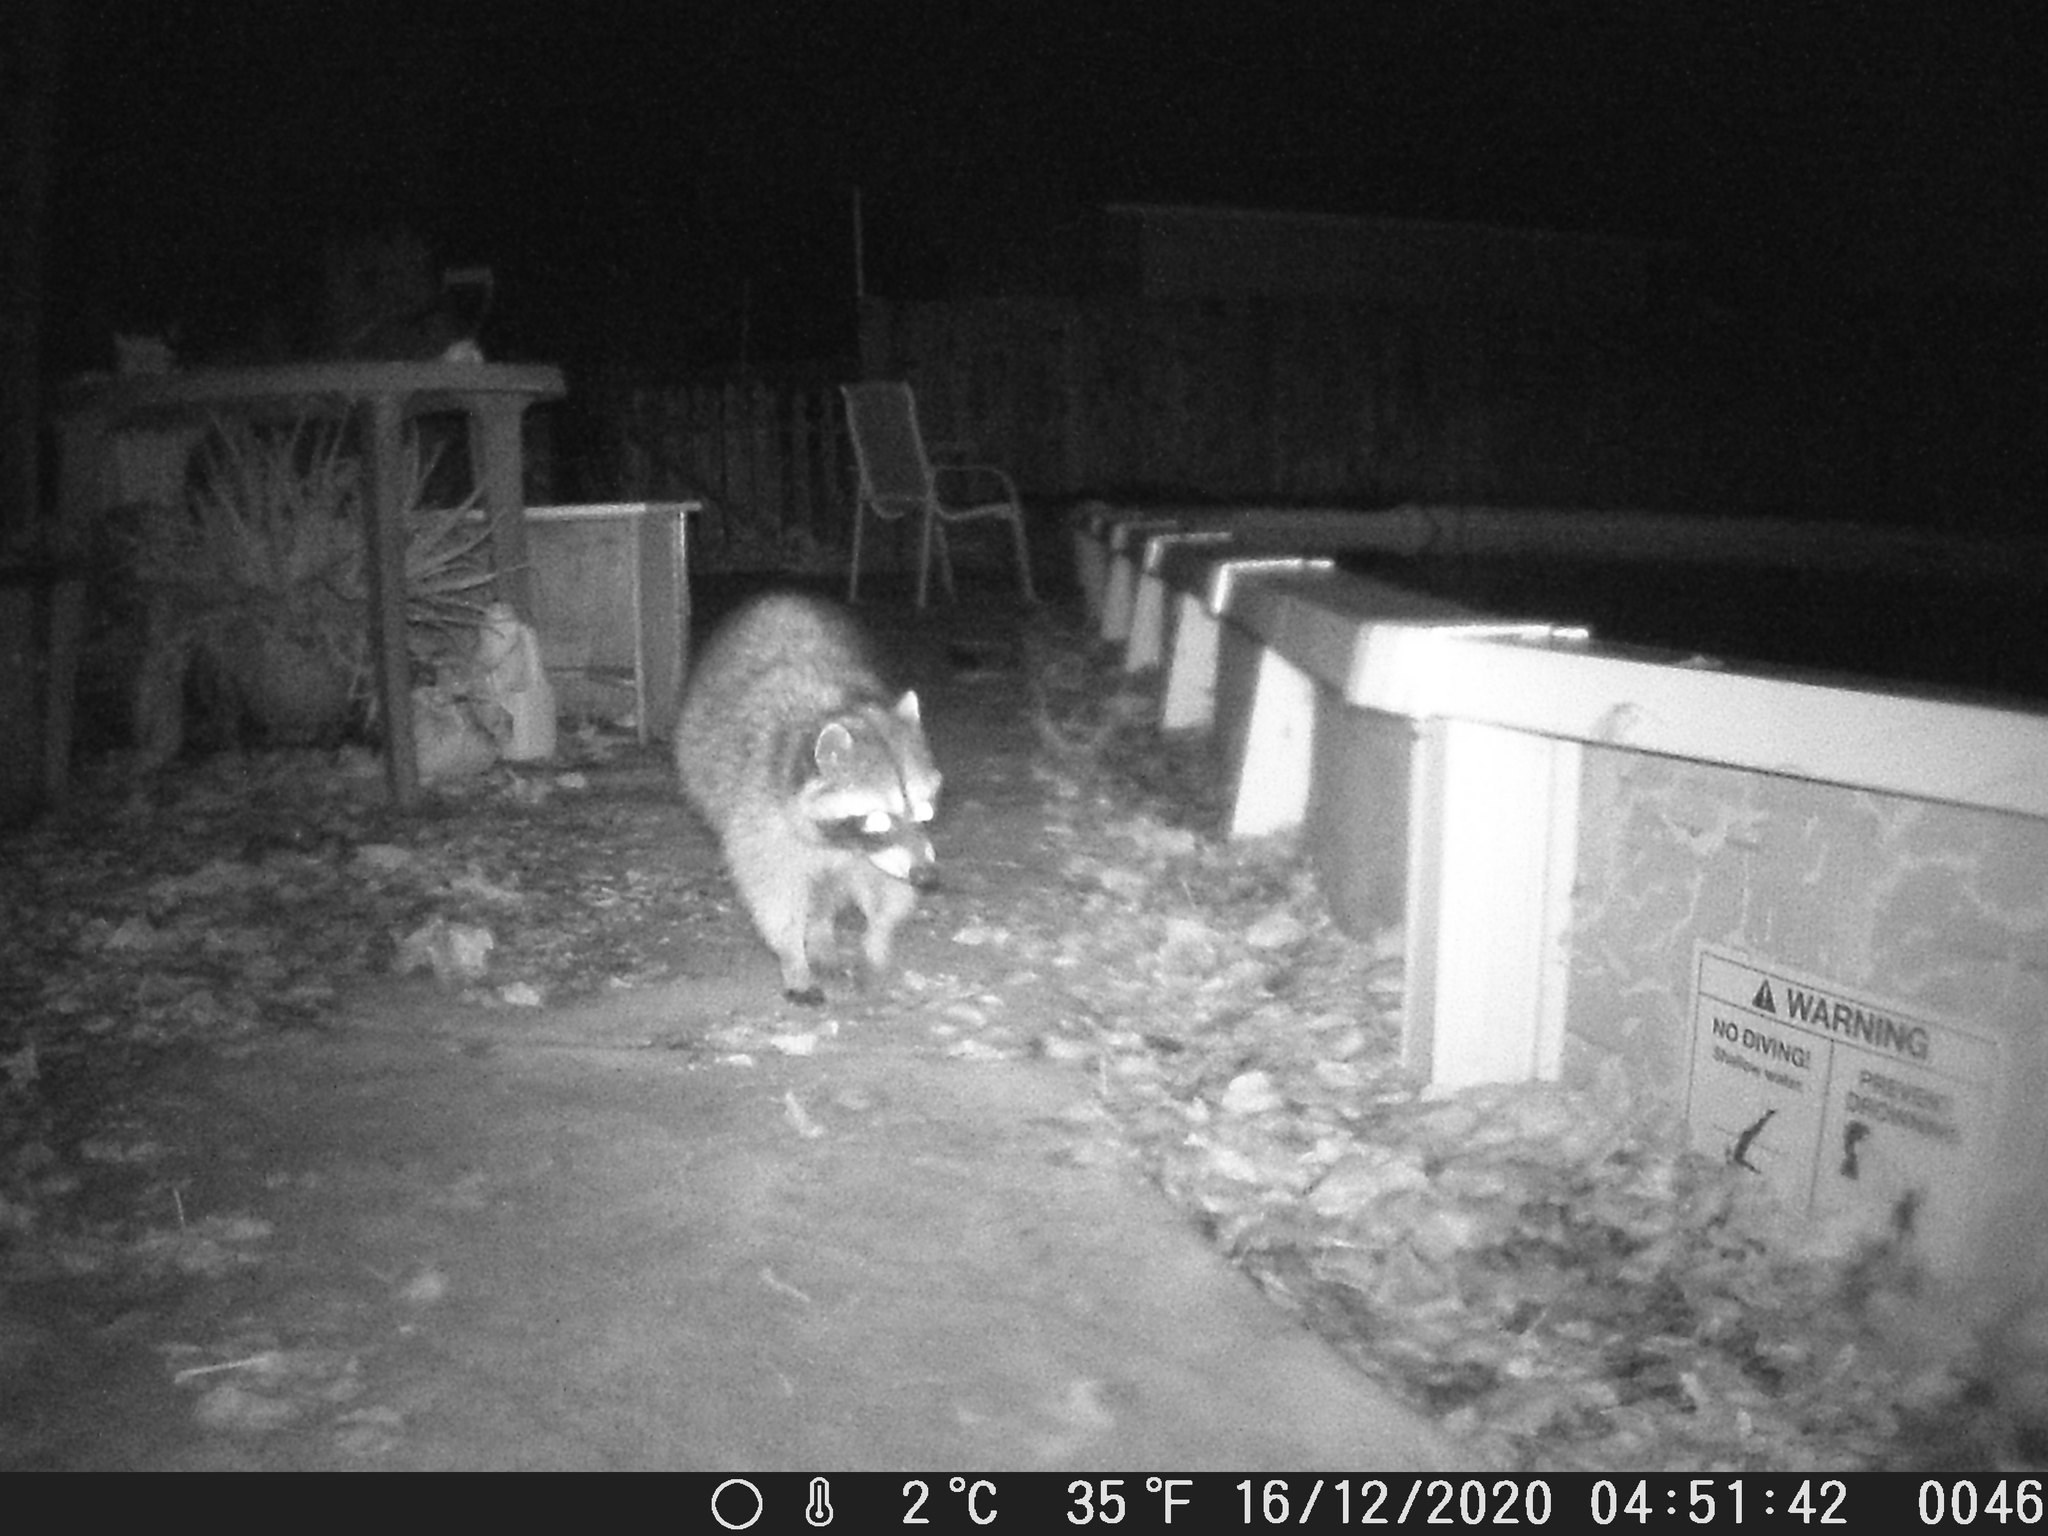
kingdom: Animalia
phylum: Chordata
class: Mammalia
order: Carnivora
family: Procyonidae
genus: Procyon
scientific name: Procyon lotor
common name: Raccoon
